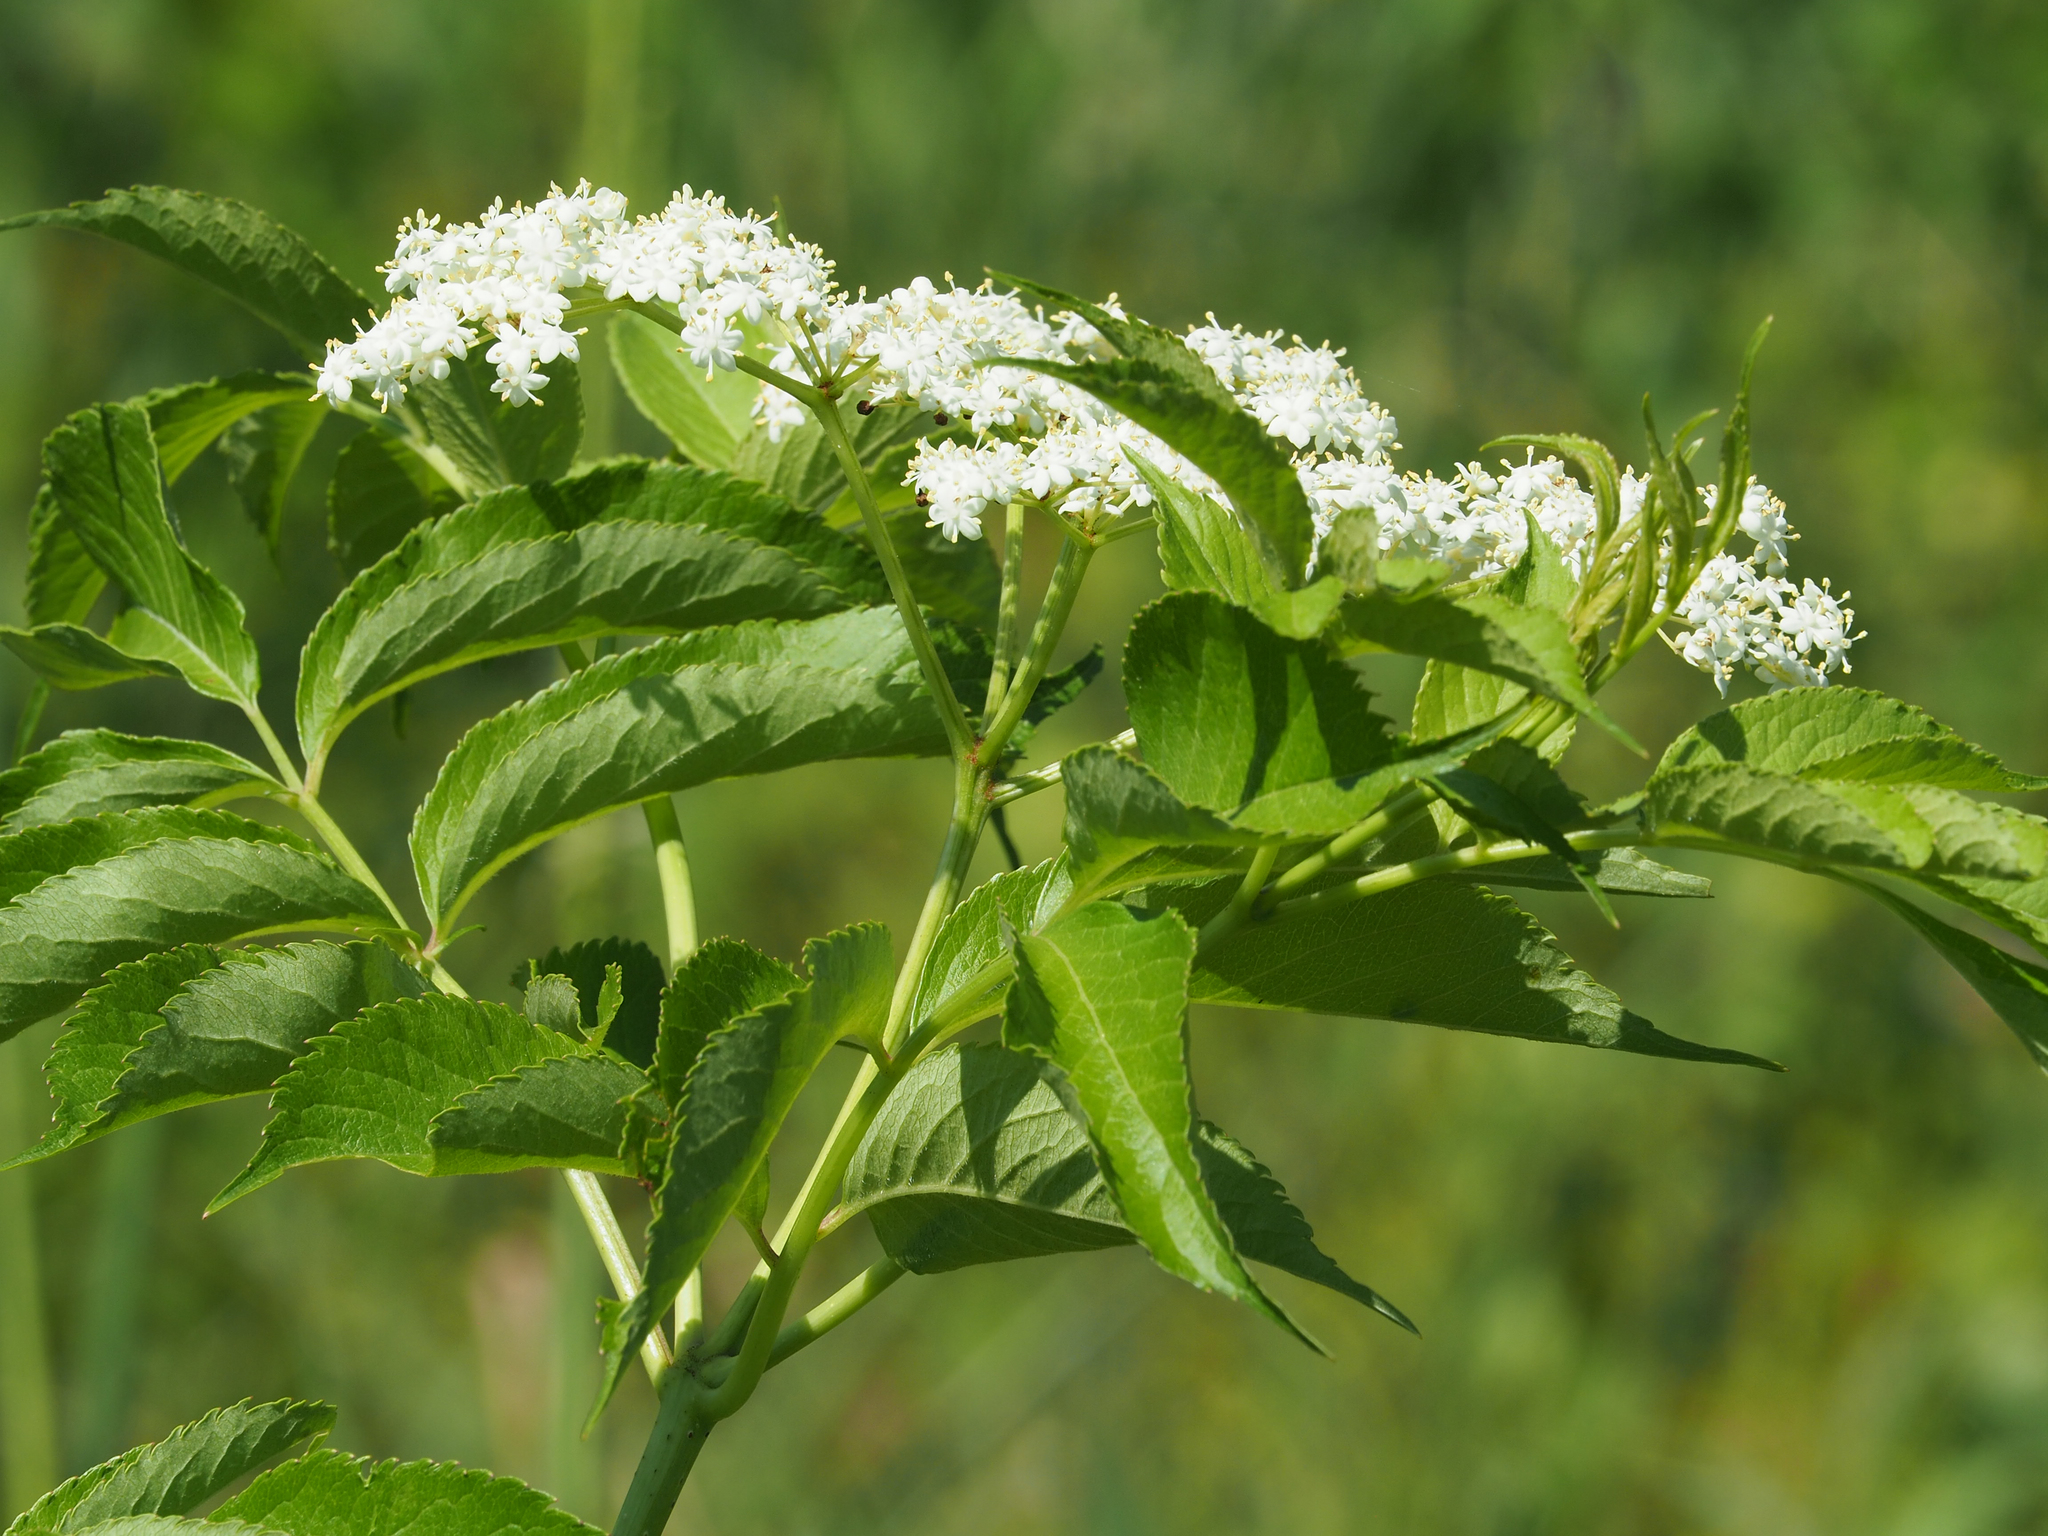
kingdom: Plantae
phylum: Tracheophyta
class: Magnoliopsida
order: Dipsacales
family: Viburnaceae
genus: Sambucus
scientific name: Sambucus canadensis
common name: American elder
